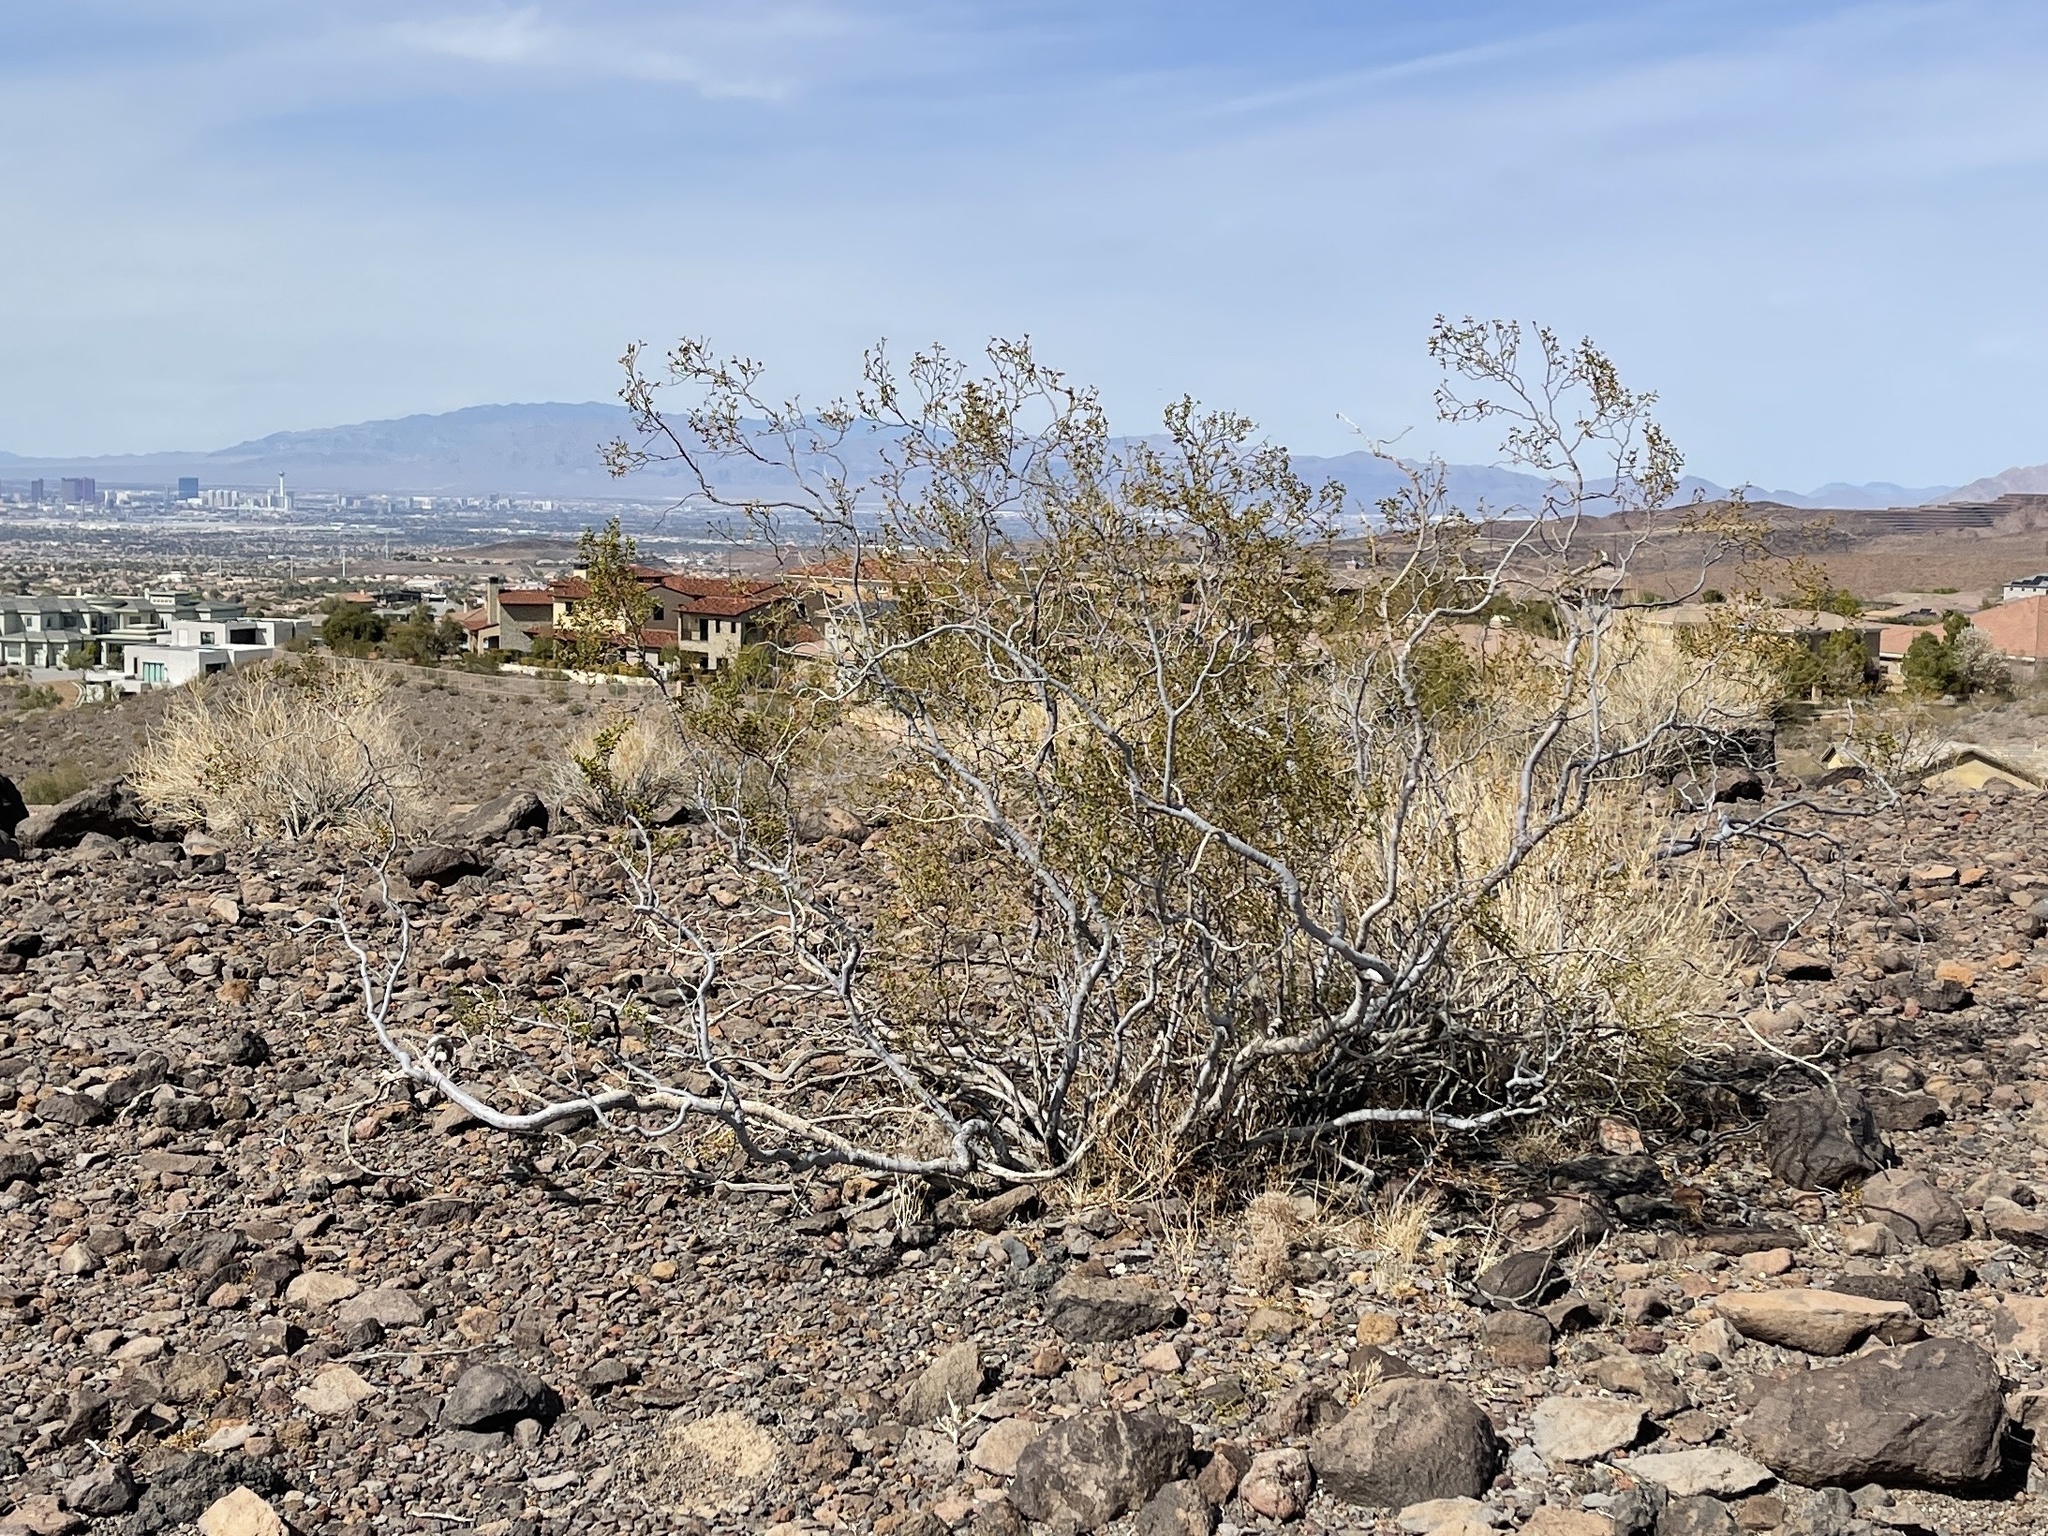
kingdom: Plantae
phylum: Tracheophyta
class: Magnoliopsida
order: Zygophyllales
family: Zygophyllaceae
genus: Larrea
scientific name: Larrea tridentata
